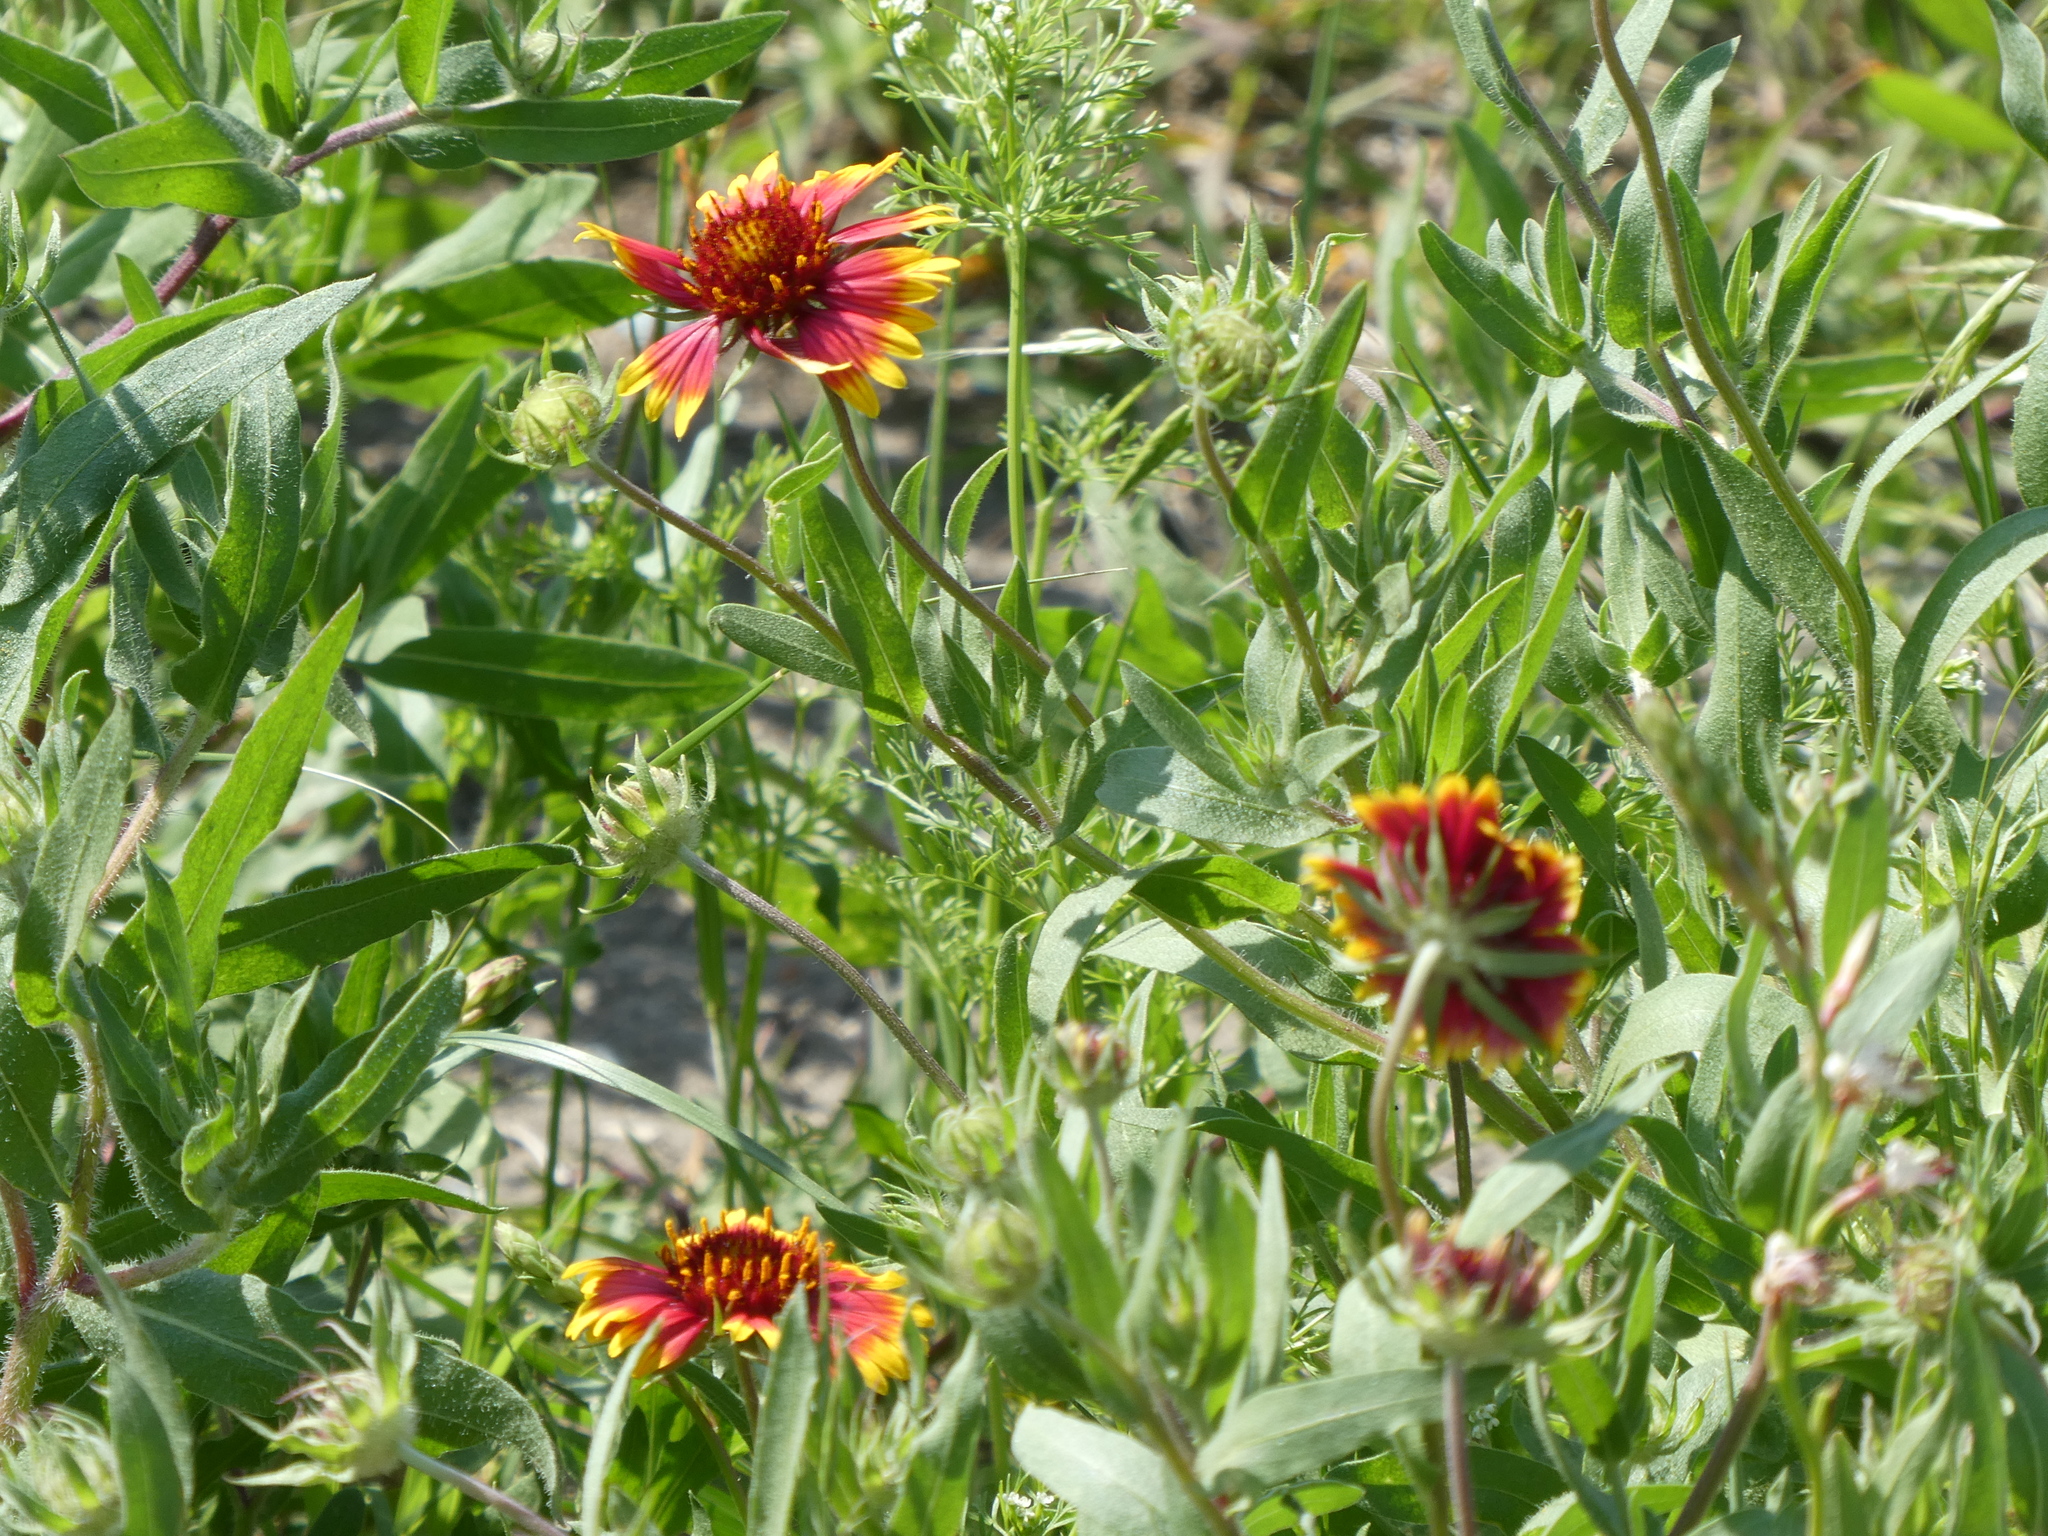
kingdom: Plantae
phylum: Tracheophyta
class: Magnoliopsida
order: Asterales
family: Asteraceae
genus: Gaillardia
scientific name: Gaillardia pulchella
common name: Firewheel
